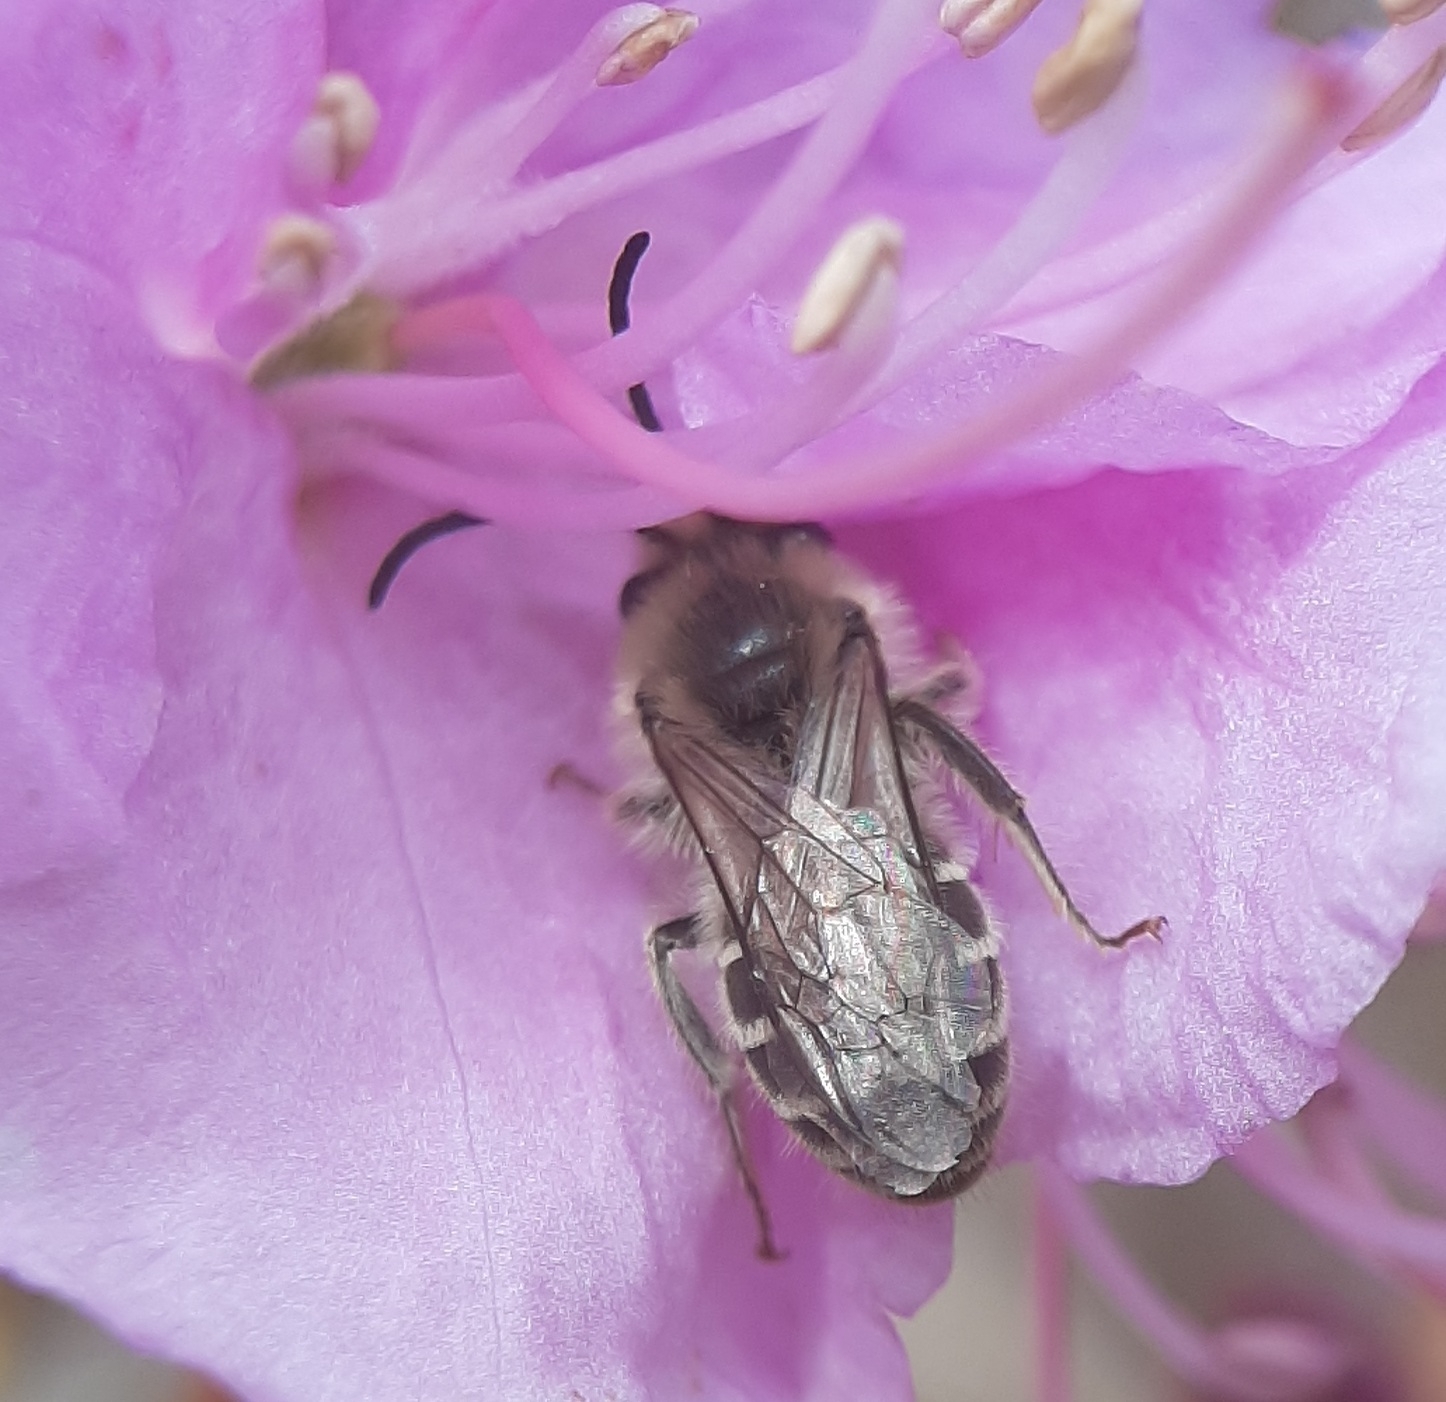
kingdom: Animalia
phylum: Arthropoda
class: Insecta
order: Hymenoptera
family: Colletidae
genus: Colletes
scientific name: Colletes inaequalis
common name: Unequal cellophane bee
